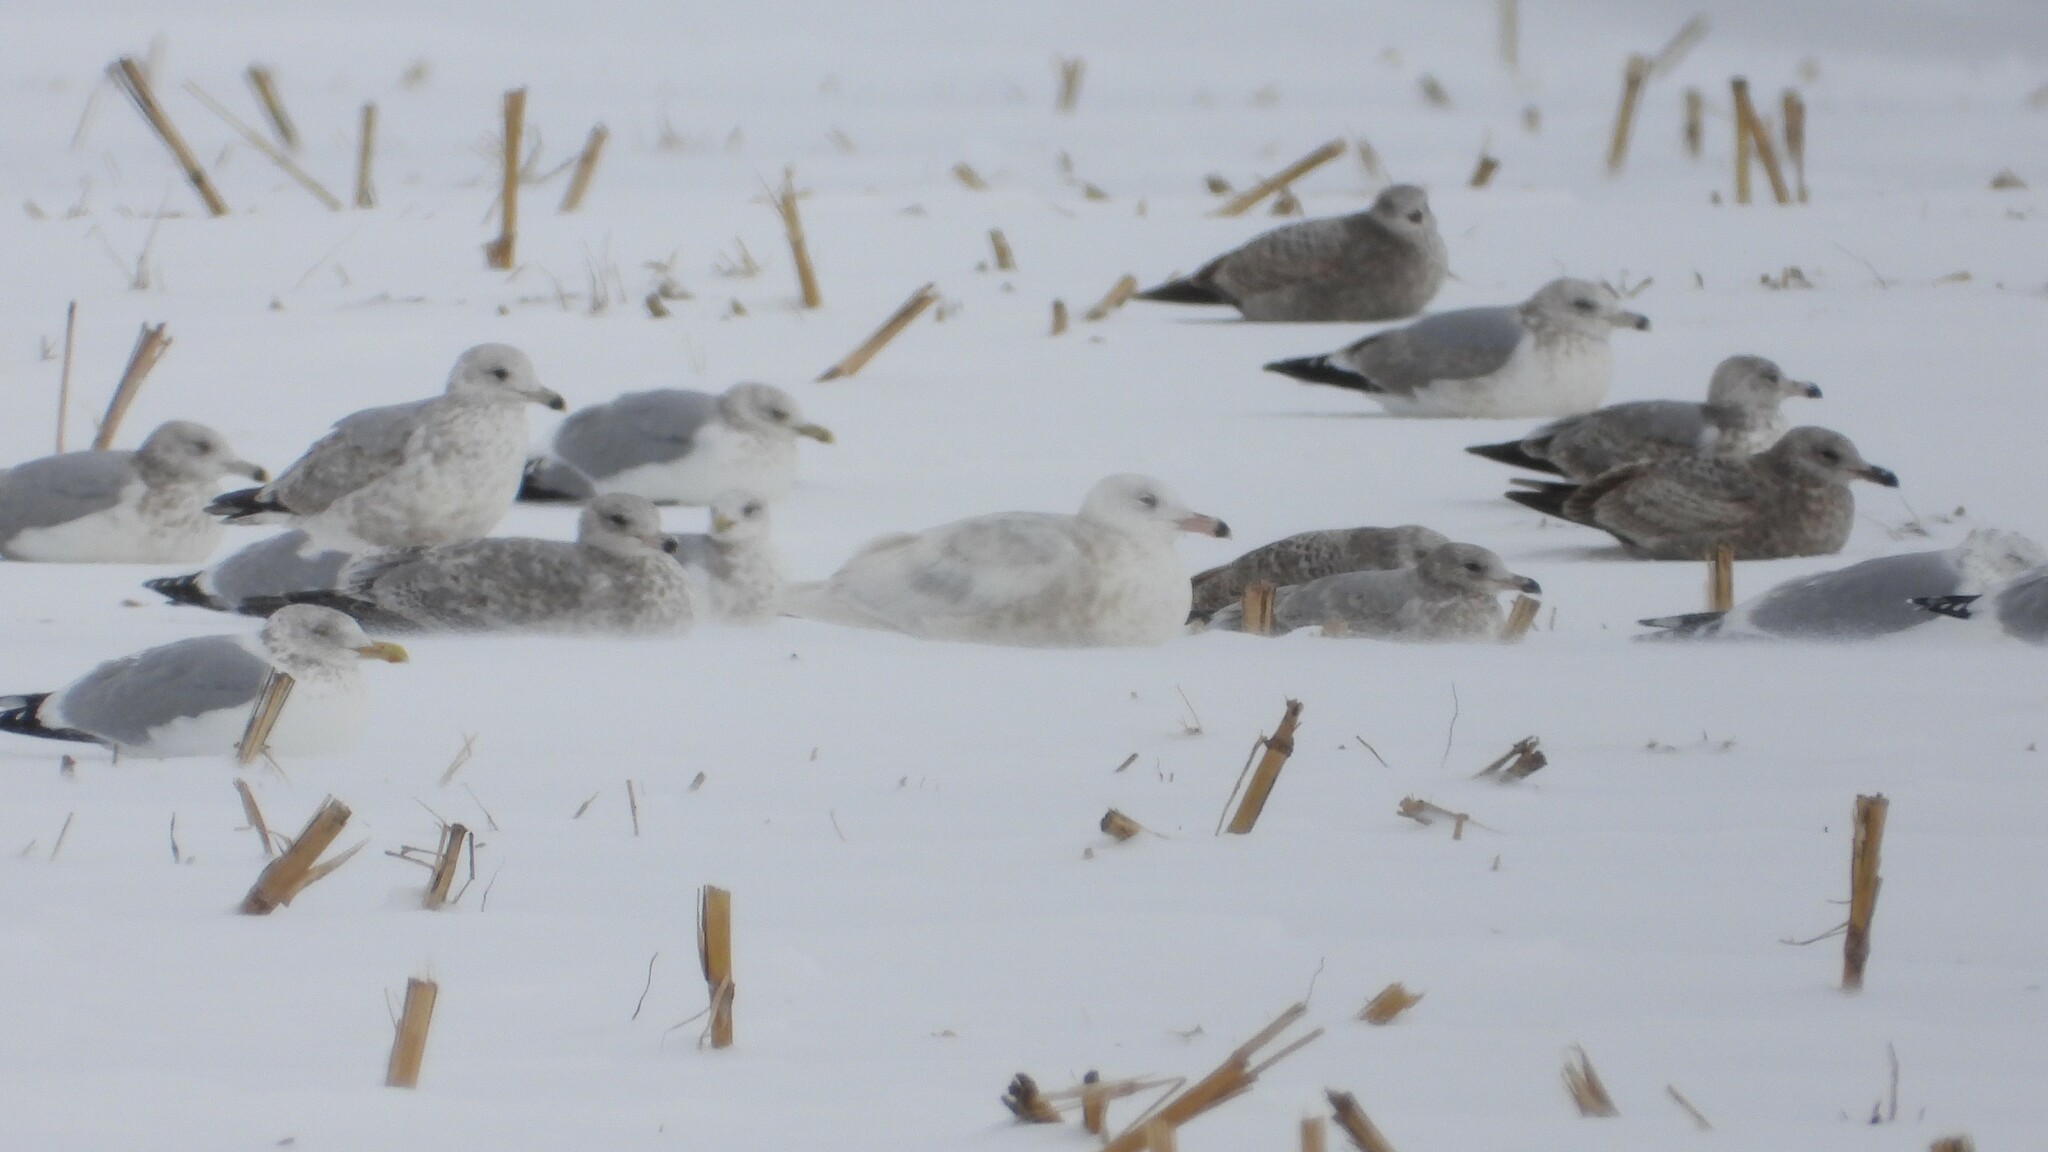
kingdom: Animalia
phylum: Chordata
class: Aves
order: Charadriiformes
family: Laridae
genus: Larus
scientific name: Larus hyperboreus
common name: Glaucous gull
